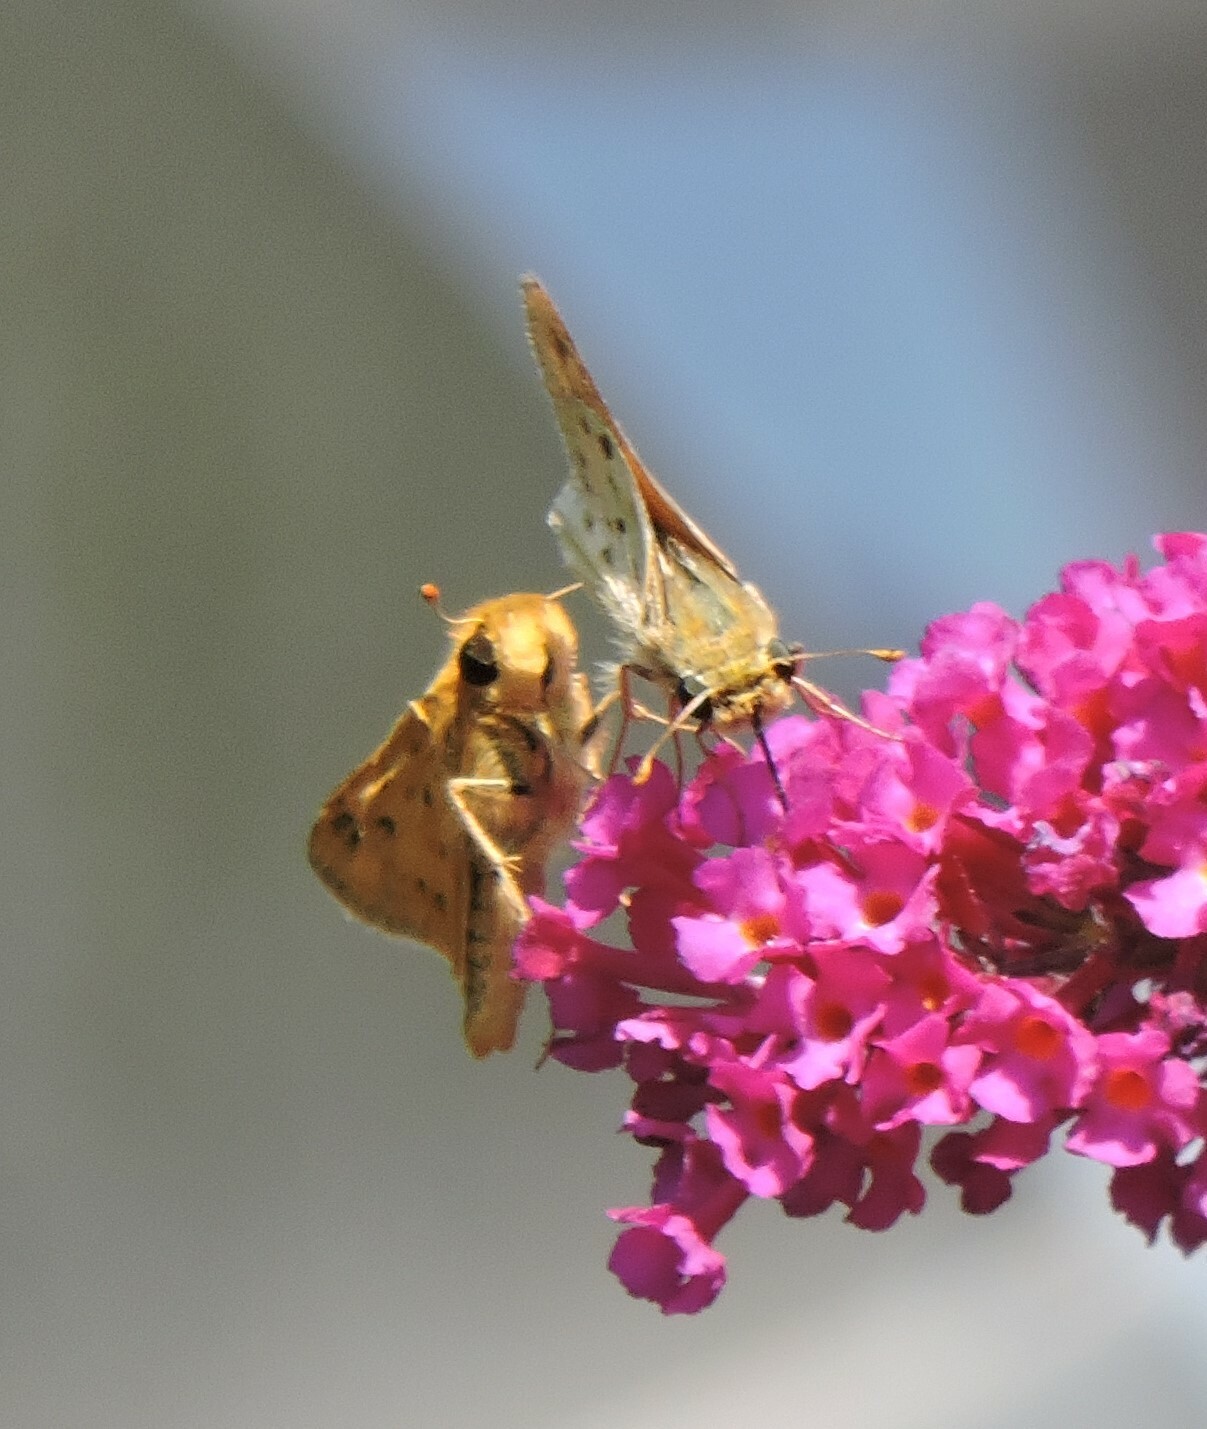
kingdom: Animalia
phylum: Arthropoda
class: Insecta
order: Lepidoptera
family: Hesperiidae
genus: Hylephila
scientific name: Hylephila phyleus
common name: Fiery skipper
